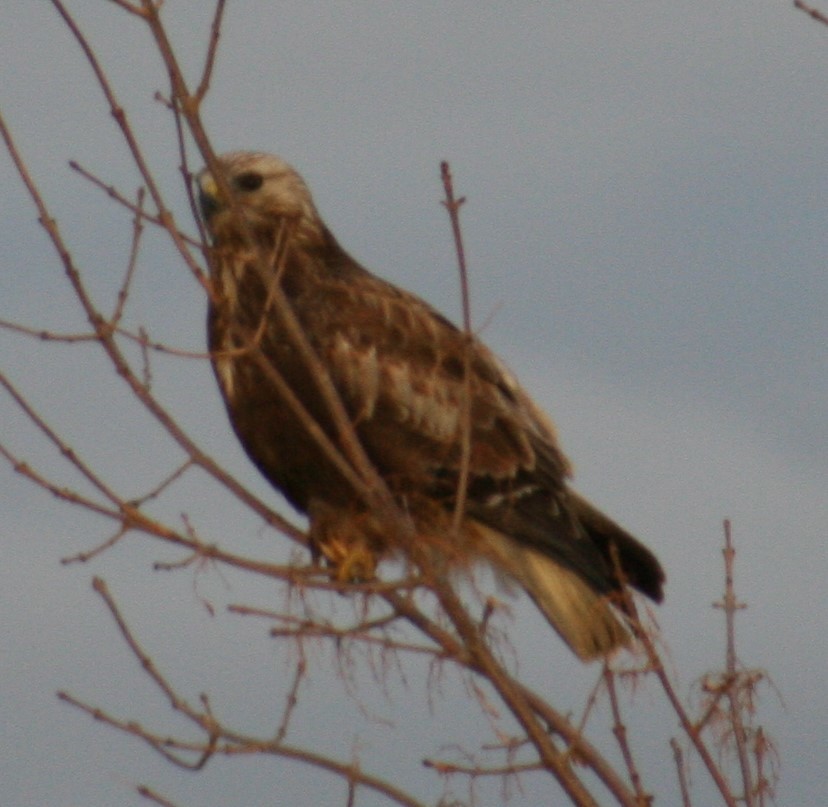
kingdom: Animalia
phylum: Chordata
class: Aves
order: Accipitriformes
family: Accipitridae
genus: Buteo
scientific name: Buteo lagopus
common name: Rough-legged buzzard
